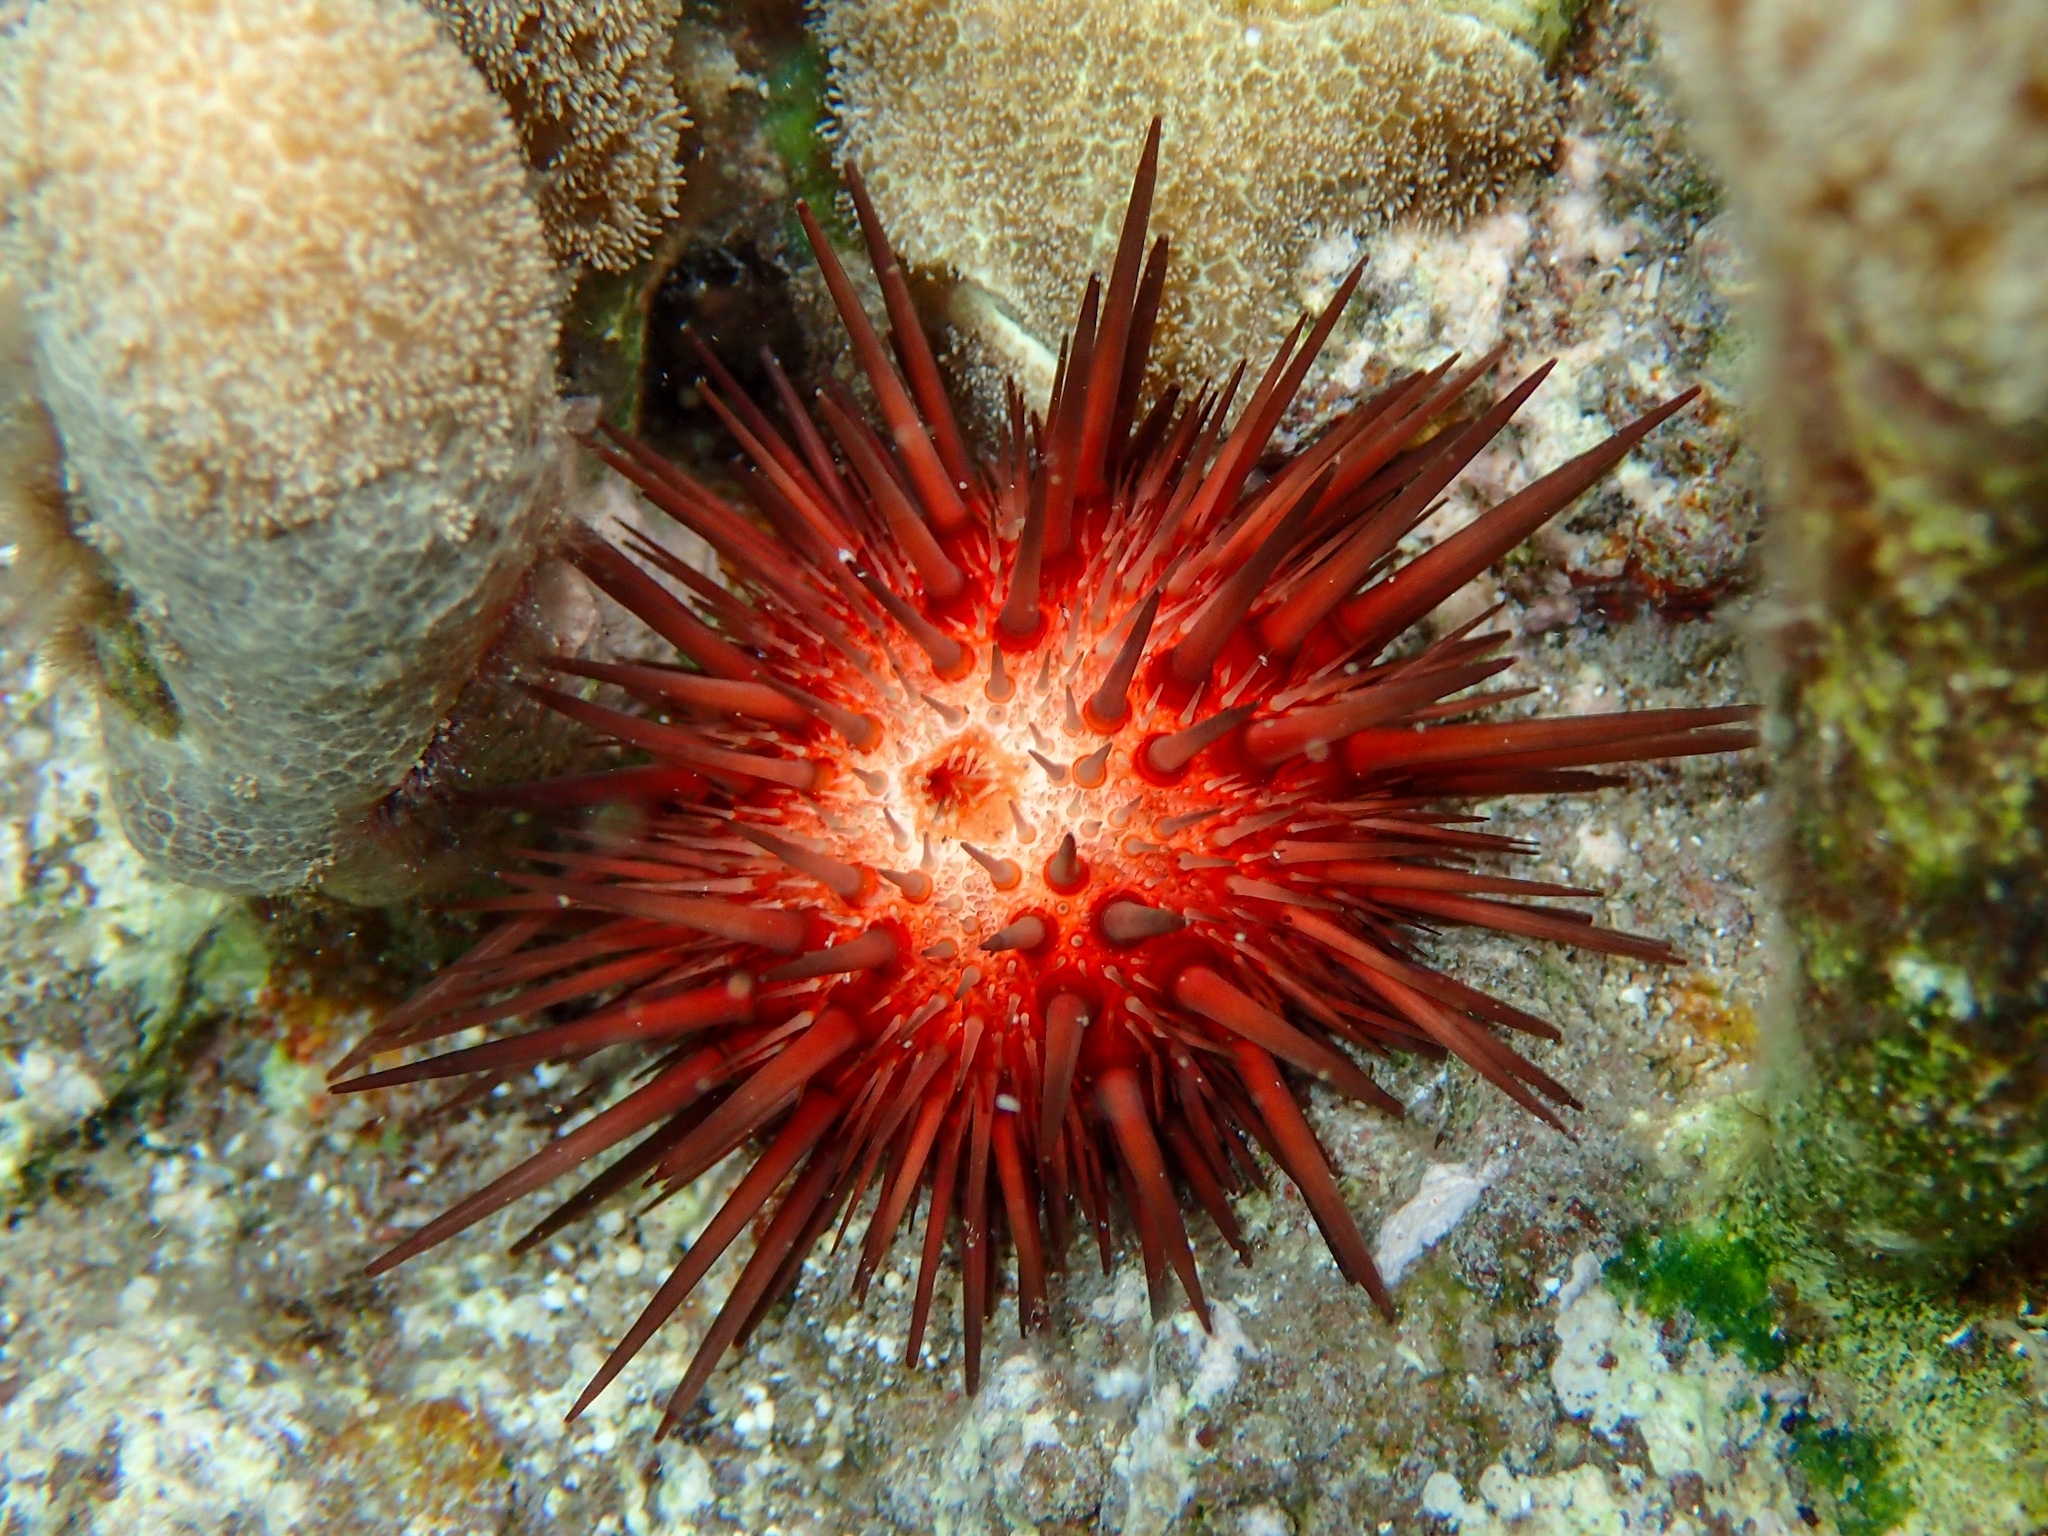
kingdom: Animalia
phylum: Echinodermata
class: Echinoidea
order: Camarodonta
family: Echinometridae
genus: Echinometra
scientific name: Echinometra lucunter
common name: Rock urchin
